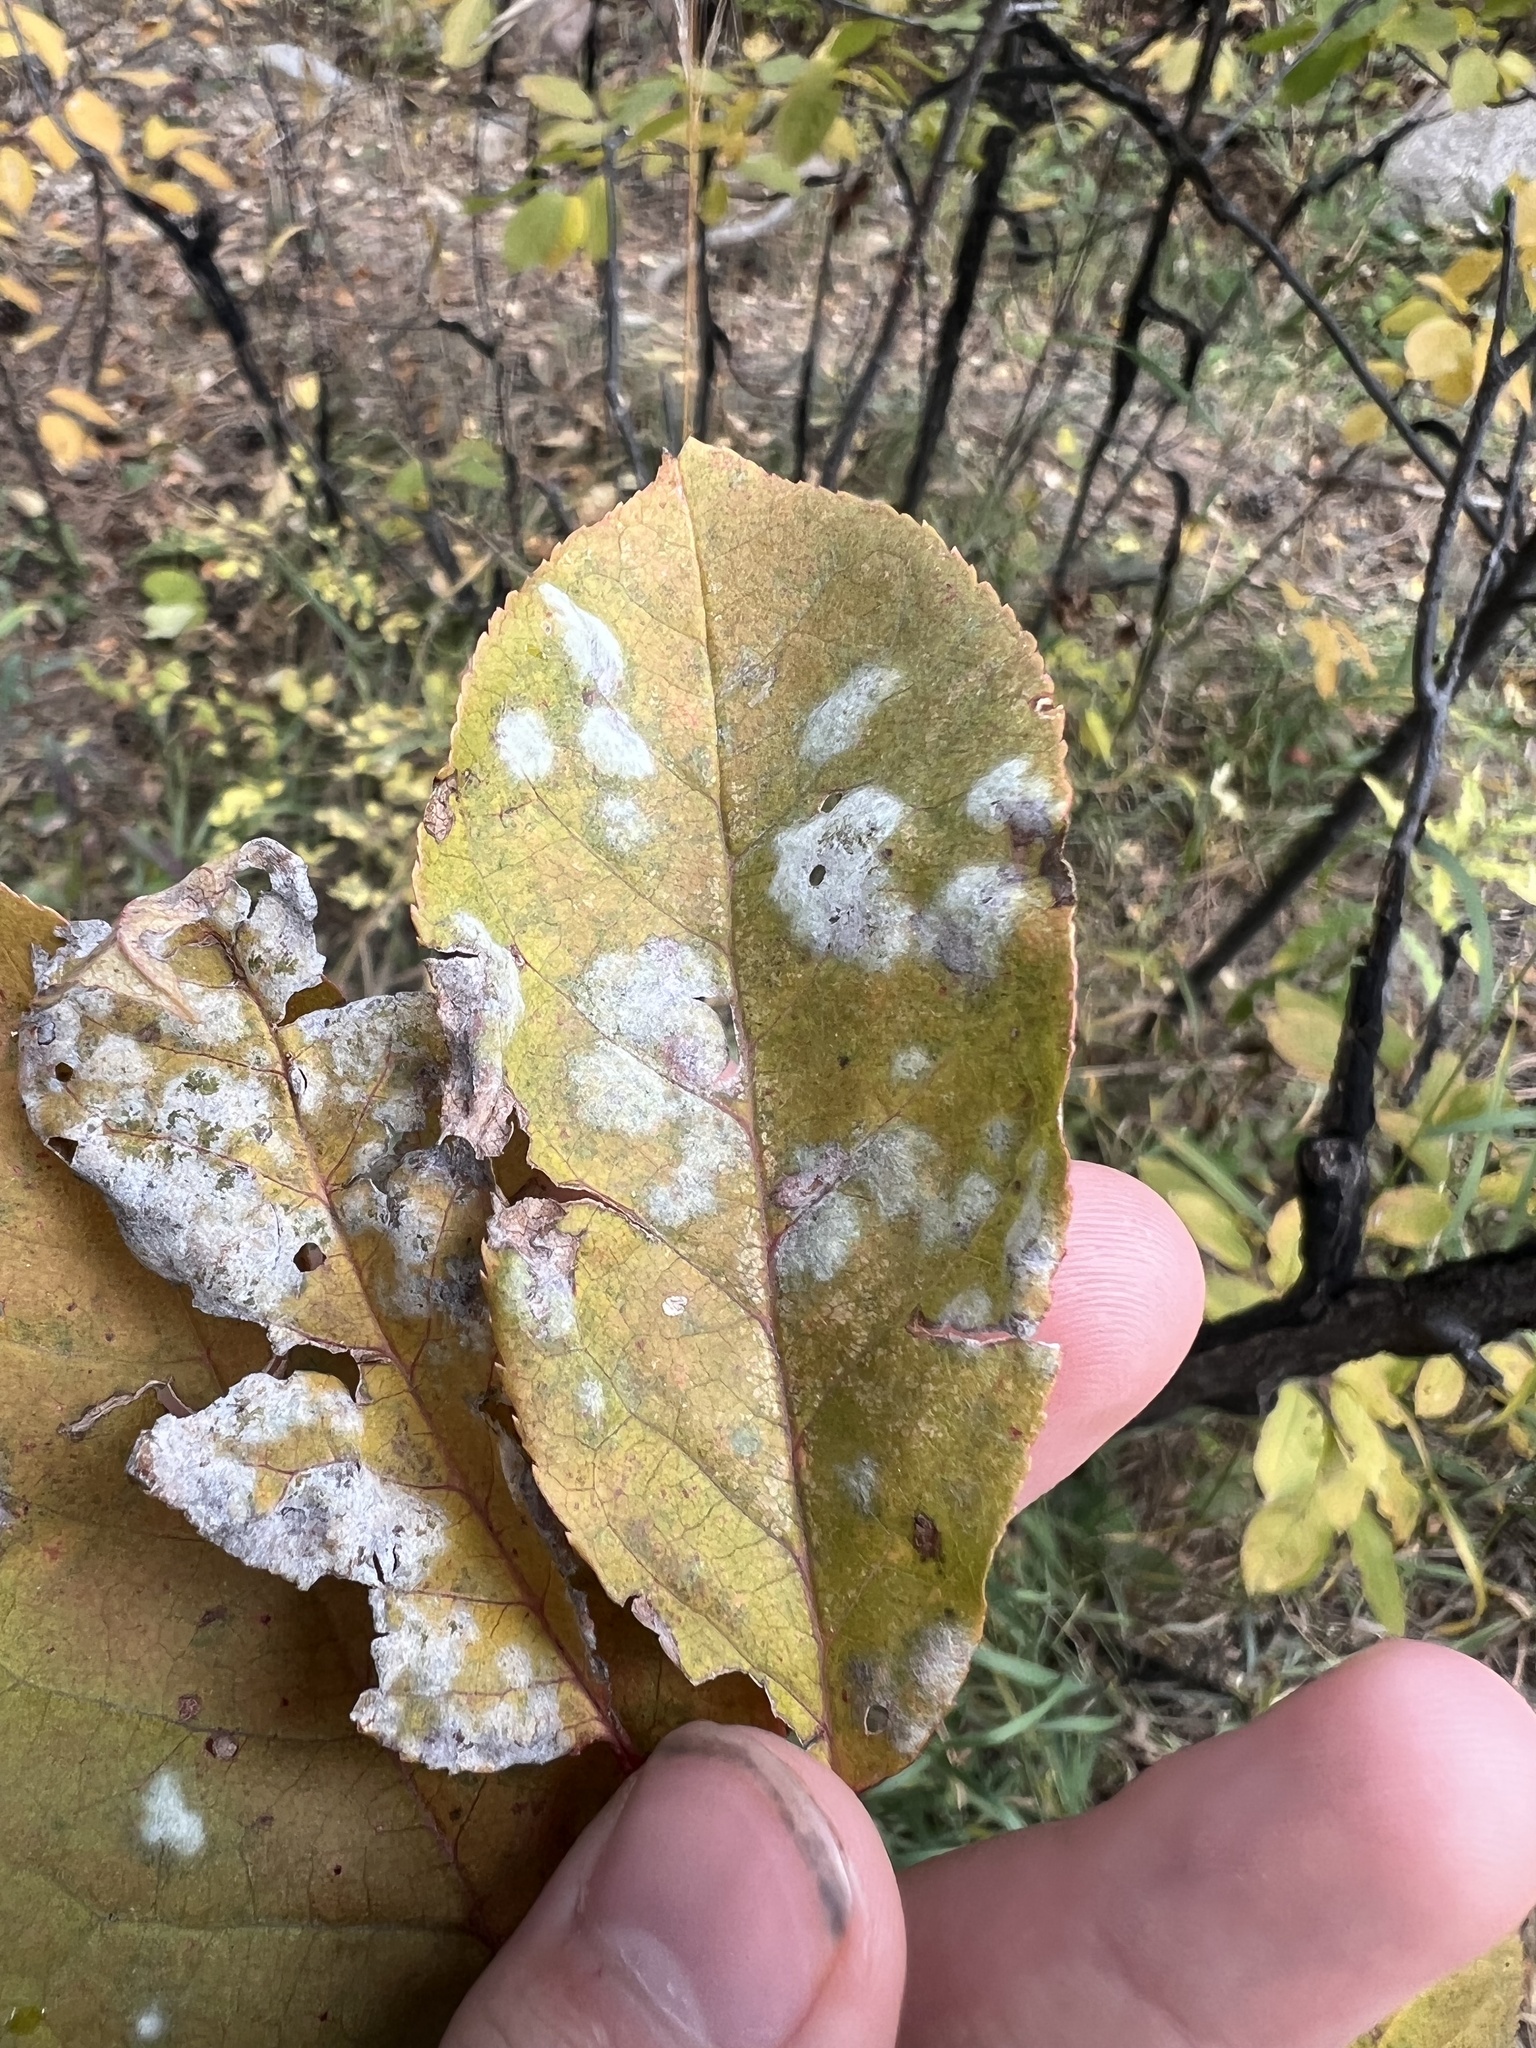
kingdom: Fungi
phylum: Ascomycota
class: Leotiomycetes
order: Helotiales
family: Erysiphaceae
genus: Podosphaera
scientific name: Podosphaera prunicola
